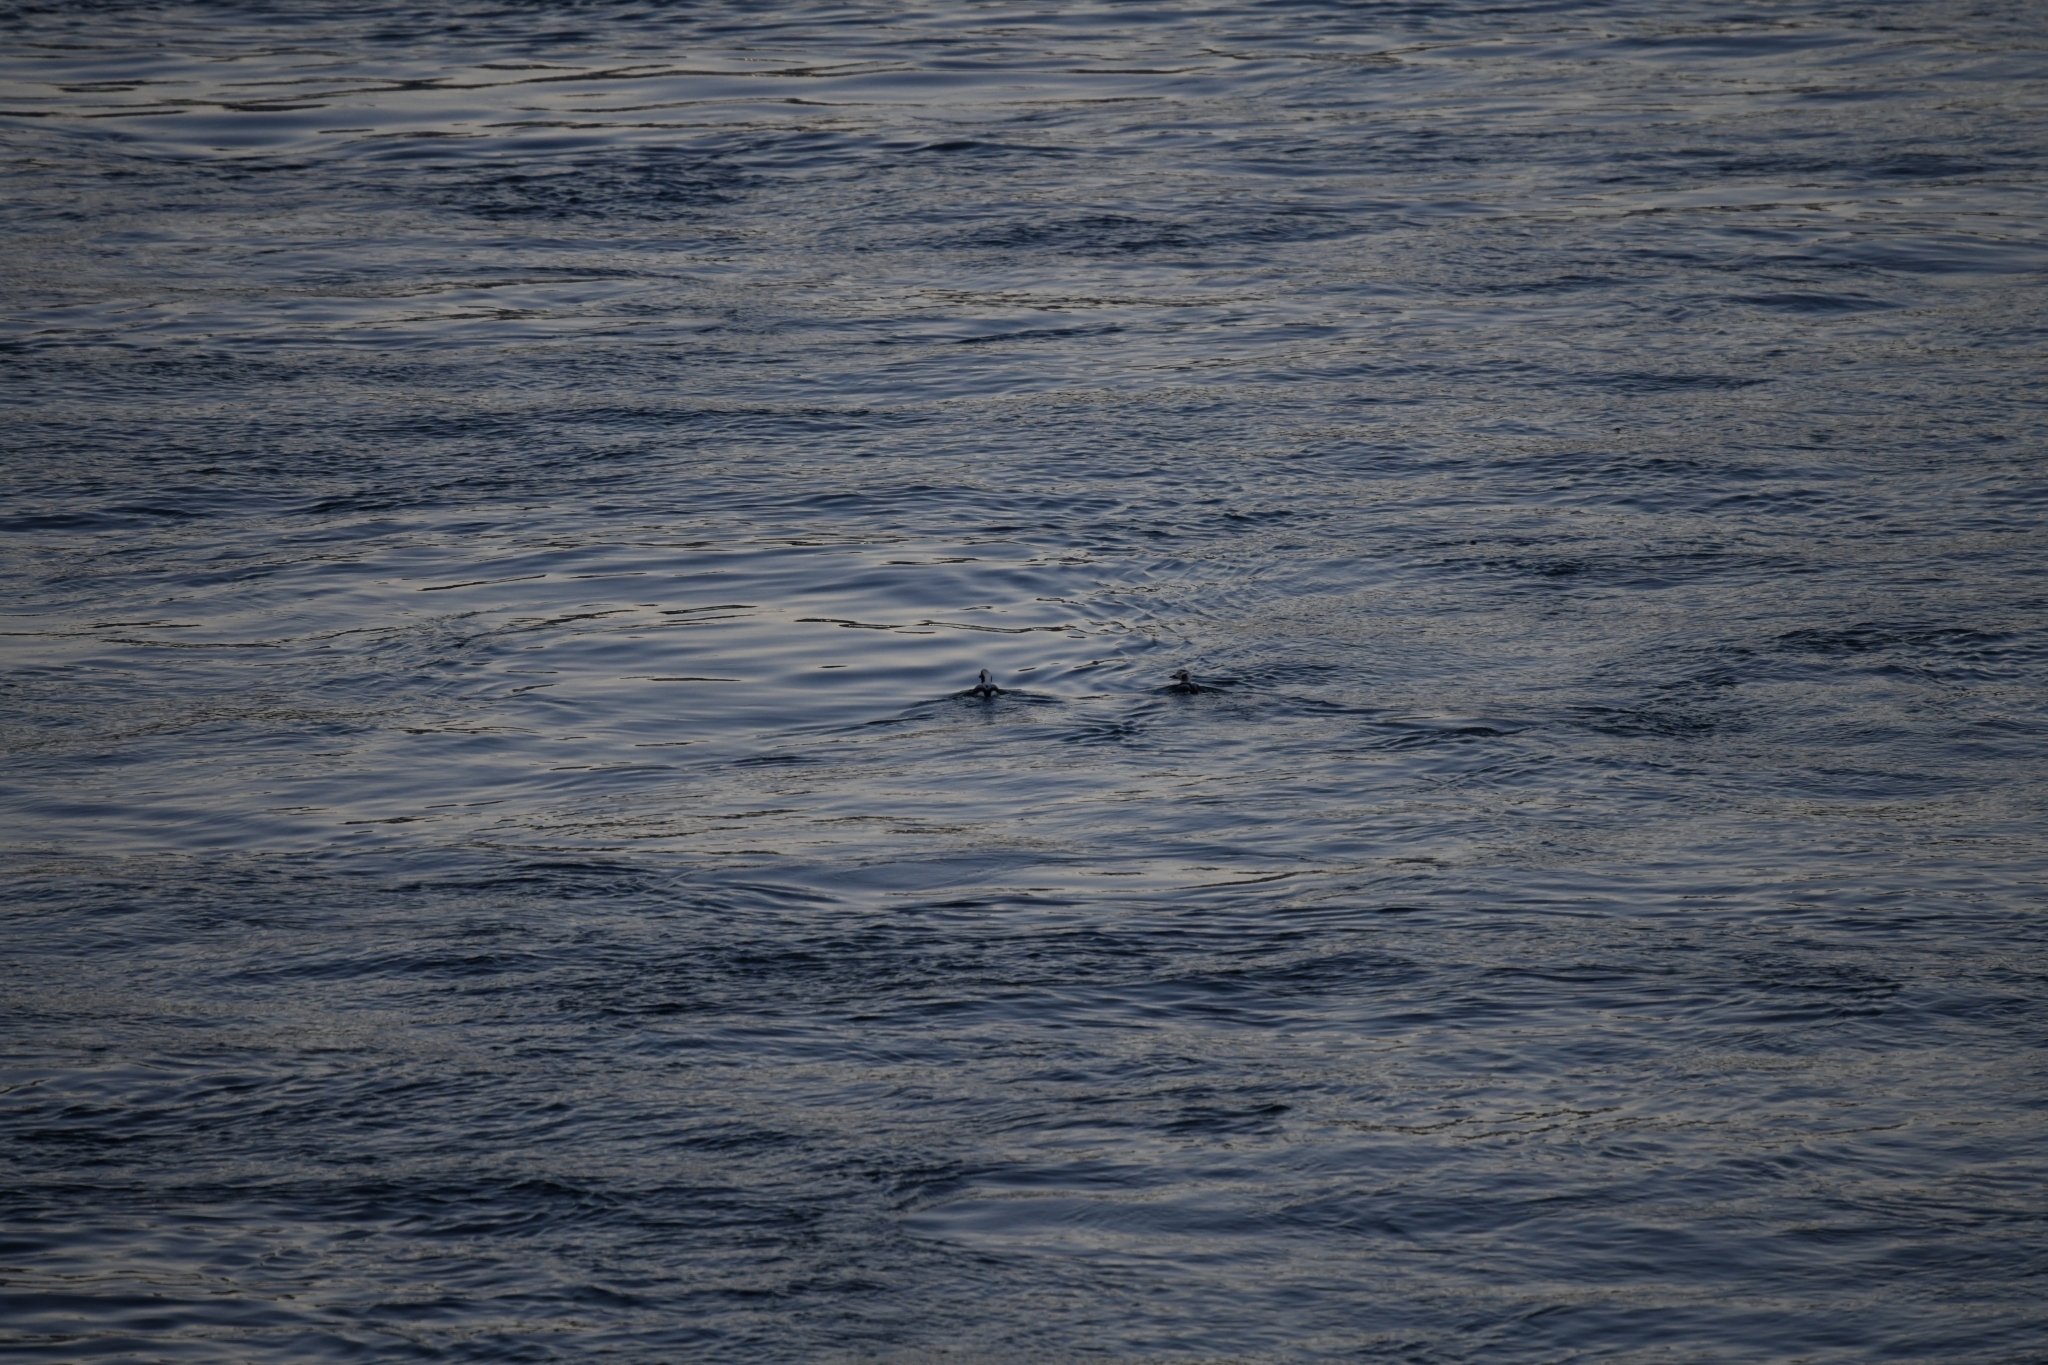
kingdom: Animalia
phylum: Chordata
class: Aves
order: Anseriformes
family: Anatidae
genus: Clangula
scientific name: Clangula hyemalis
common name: Long-tailed duck
